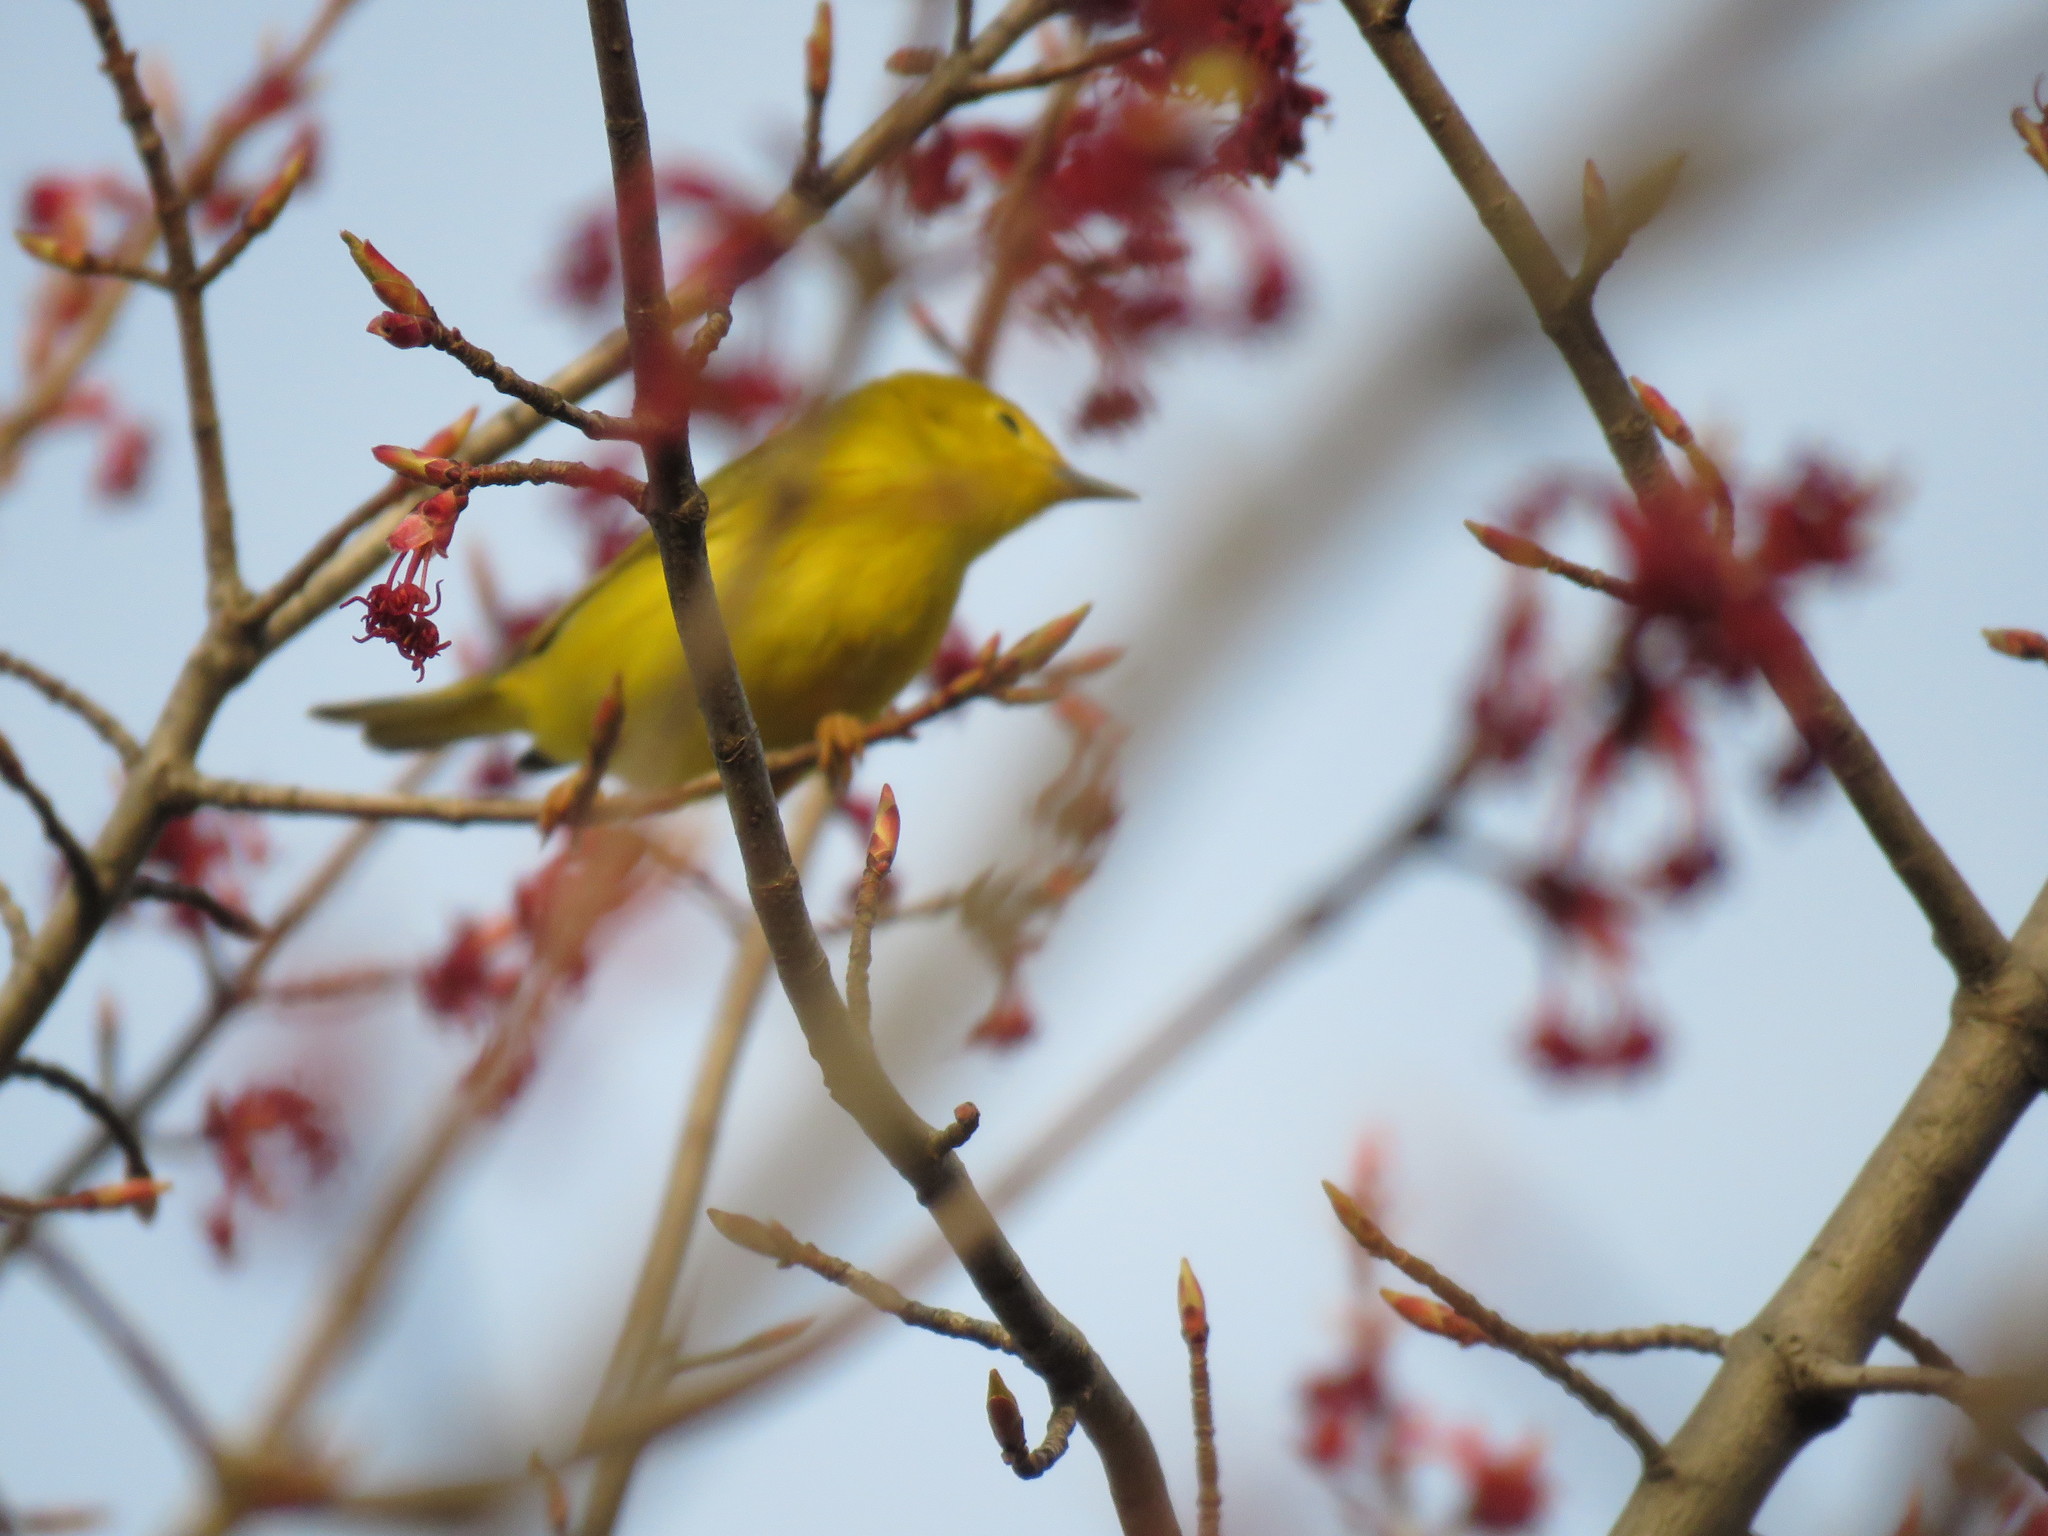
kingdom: Animalia
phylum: Chordata
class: Aves
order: Passeriformes
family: Parulidae
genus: Setophaga
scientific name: Setophaga petechia
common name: Yellow warbler
